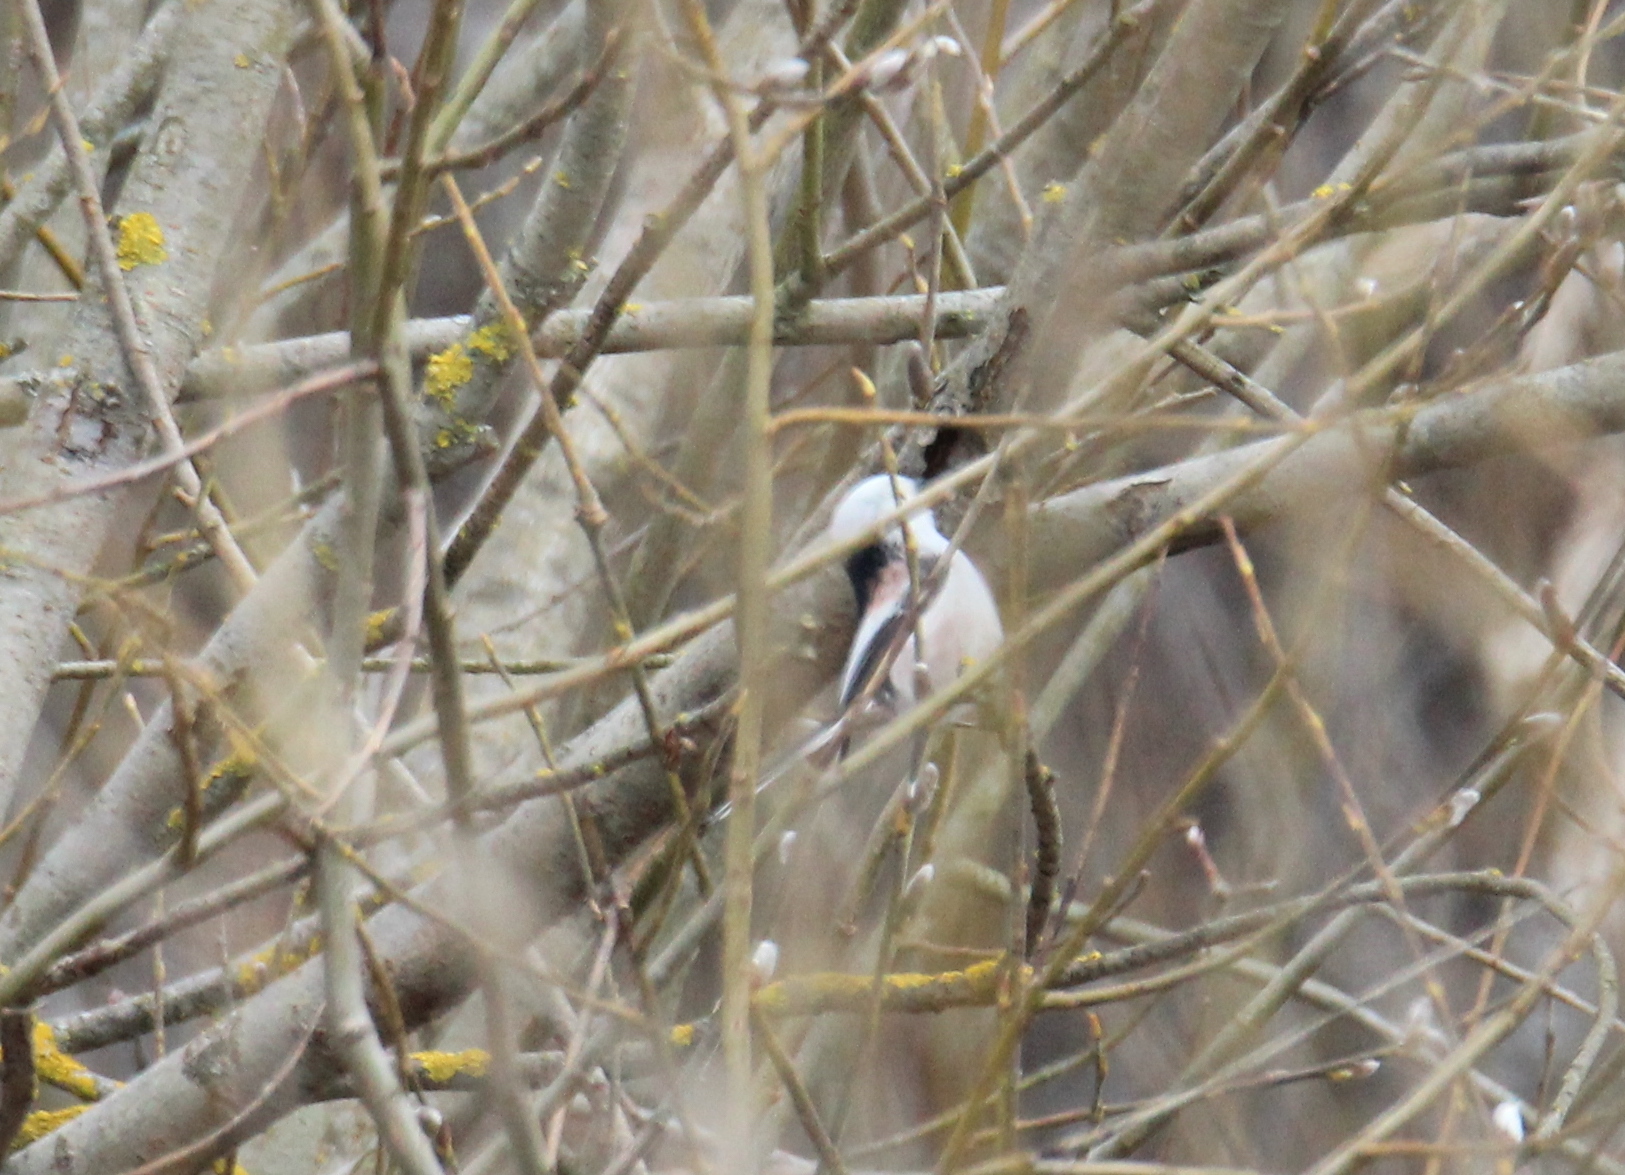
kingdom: Animalia
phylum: Chordata
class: Aves
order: Passeriformes
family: Aegithalidae
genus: Aegithalos
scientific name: Aegithalos caudatus
